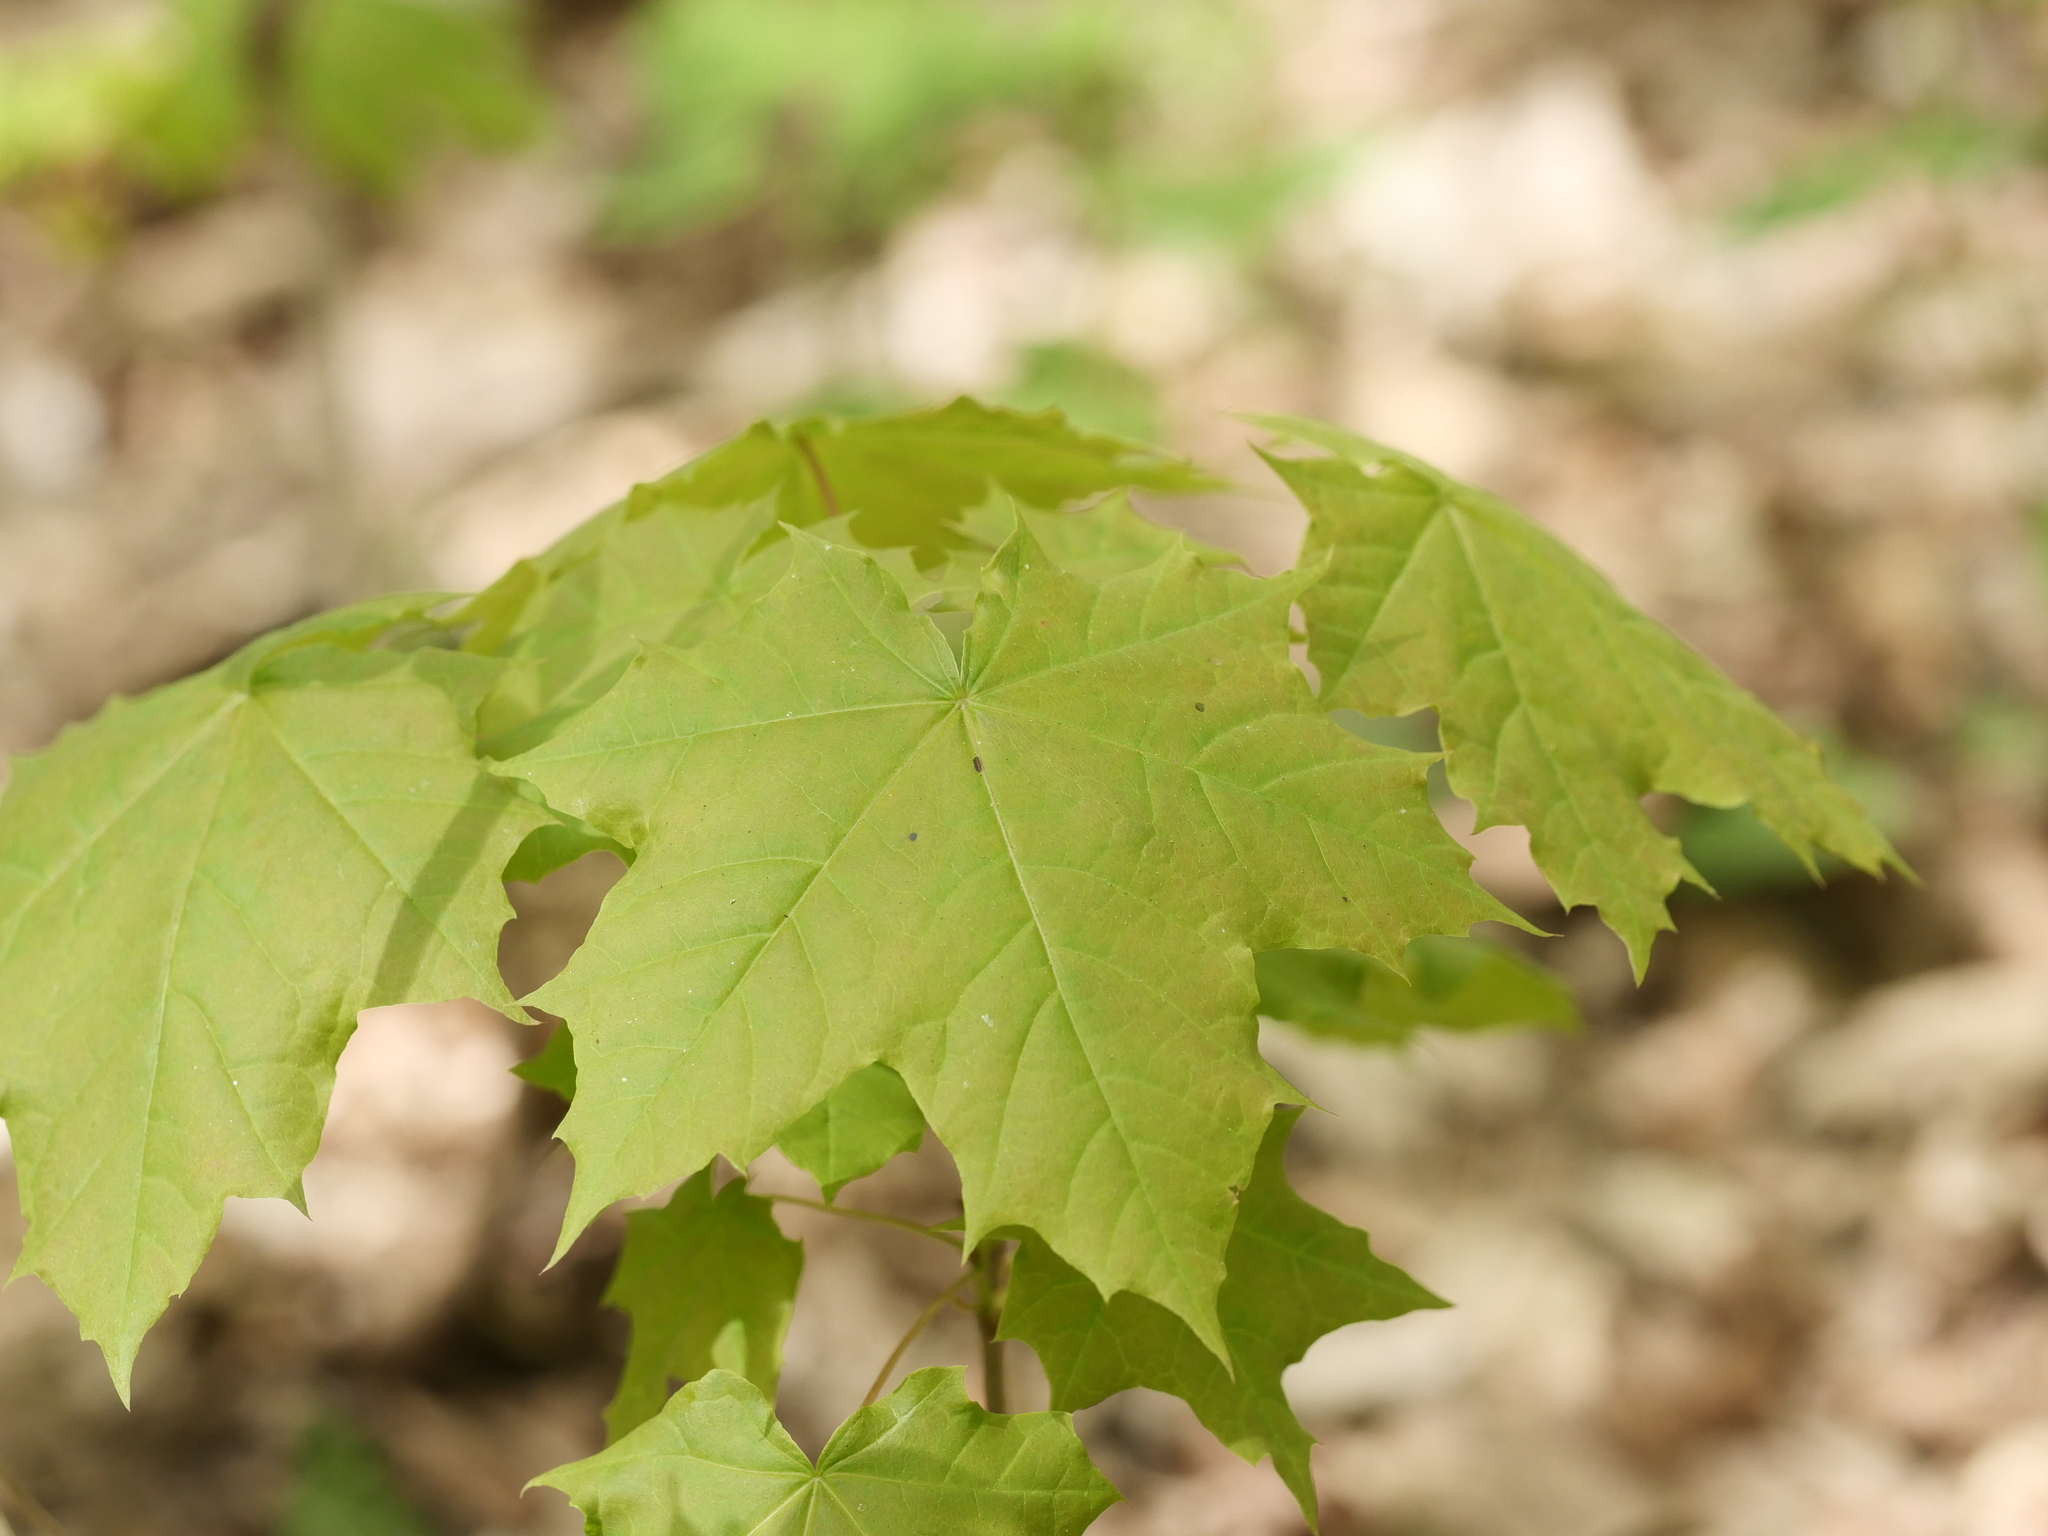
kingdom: Plantae
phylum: Tracheophyta
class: Magnoliopsida
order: Sapindales
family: Sapindaceae
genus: Acer
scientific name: Acer platanoides
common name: Norway maple
